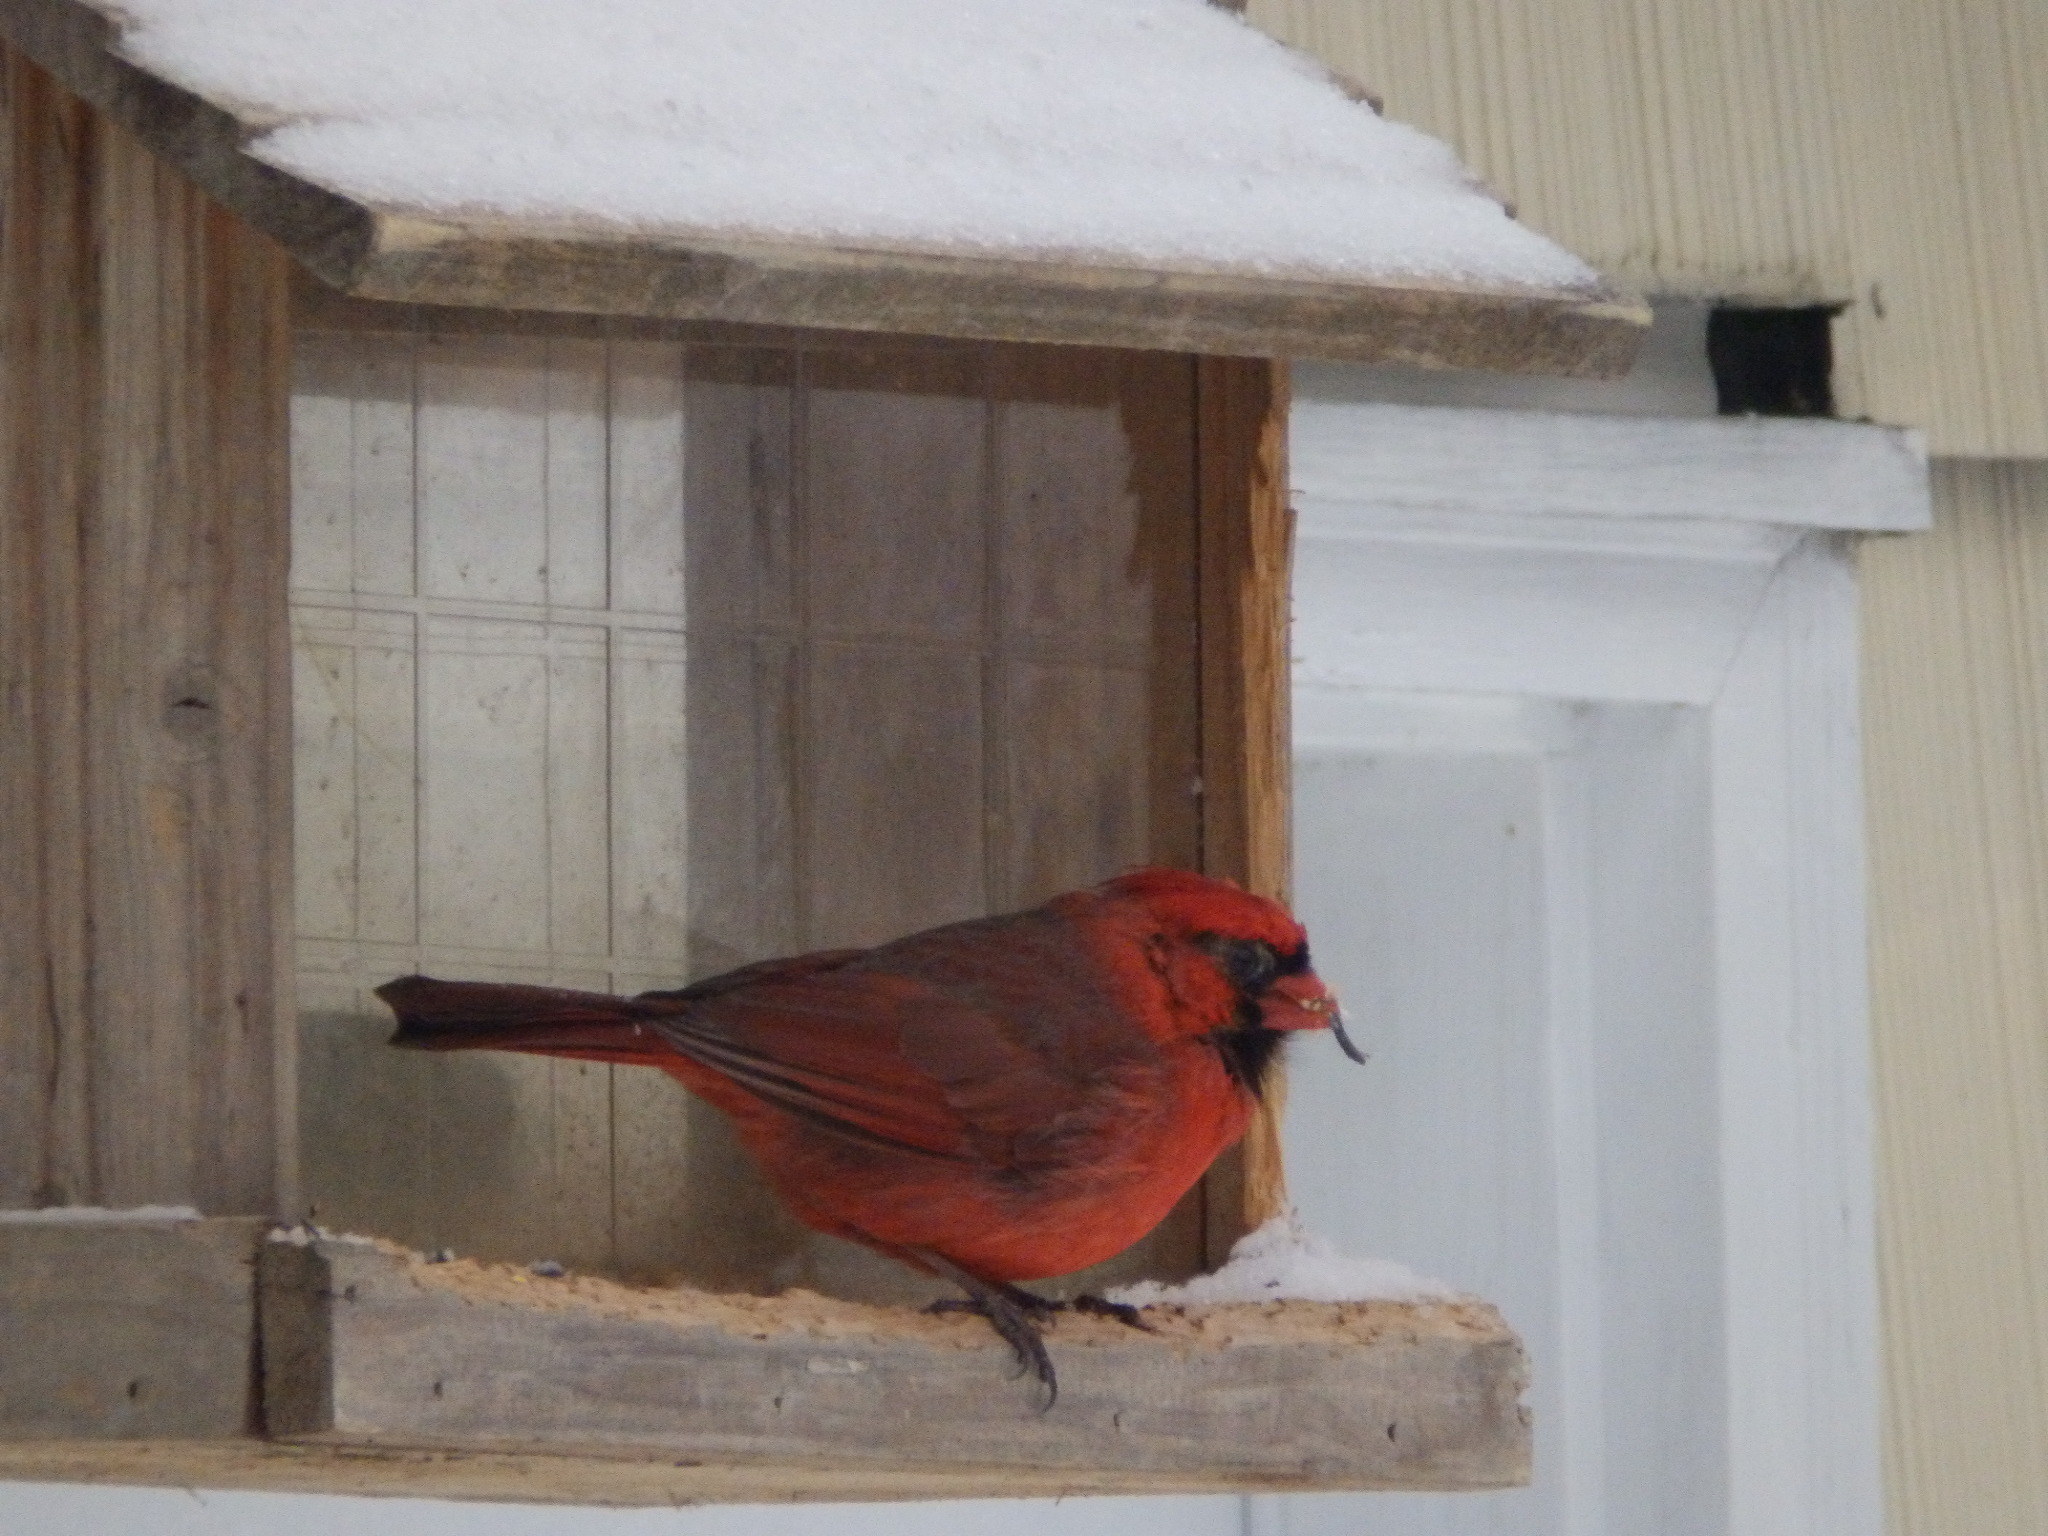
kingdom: Animalia
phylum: Chordata
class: Aves
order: Passeriformes
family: Cardinalidae
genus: Cardinalis
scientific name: Cardinalis cardinalis
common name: Northern cardinal
